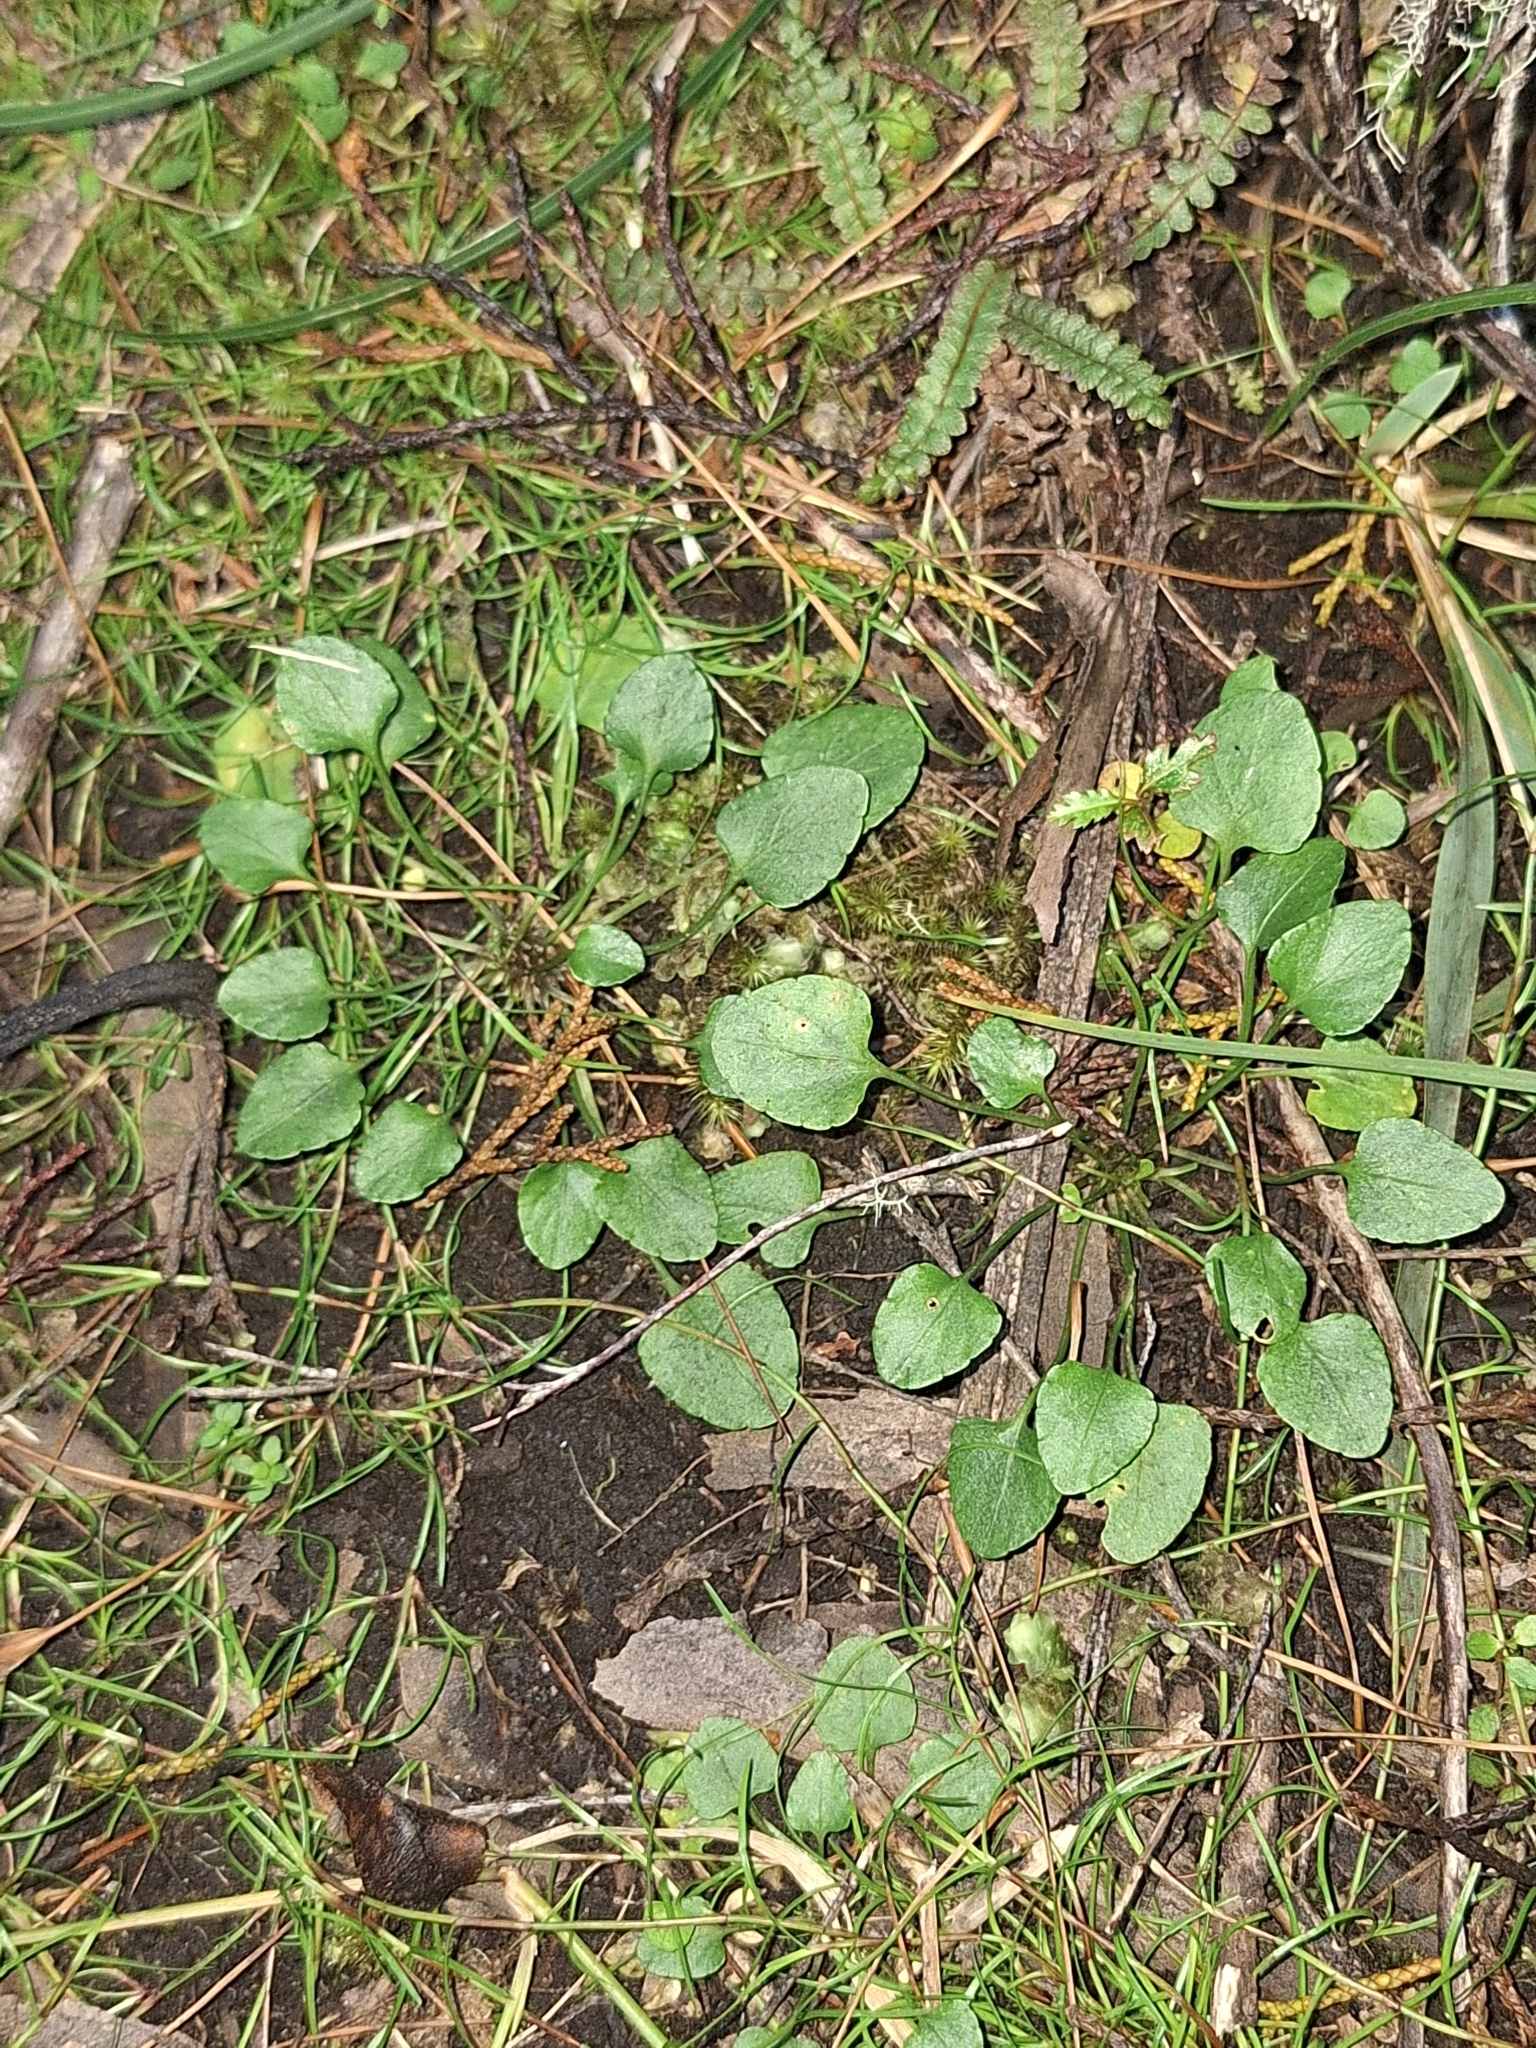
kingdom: Plantae
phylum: Tracheophyta
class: Magnoliopsida
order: Malpighiales
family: Violaceae
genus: Viola
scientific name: Viola cunninghamii
